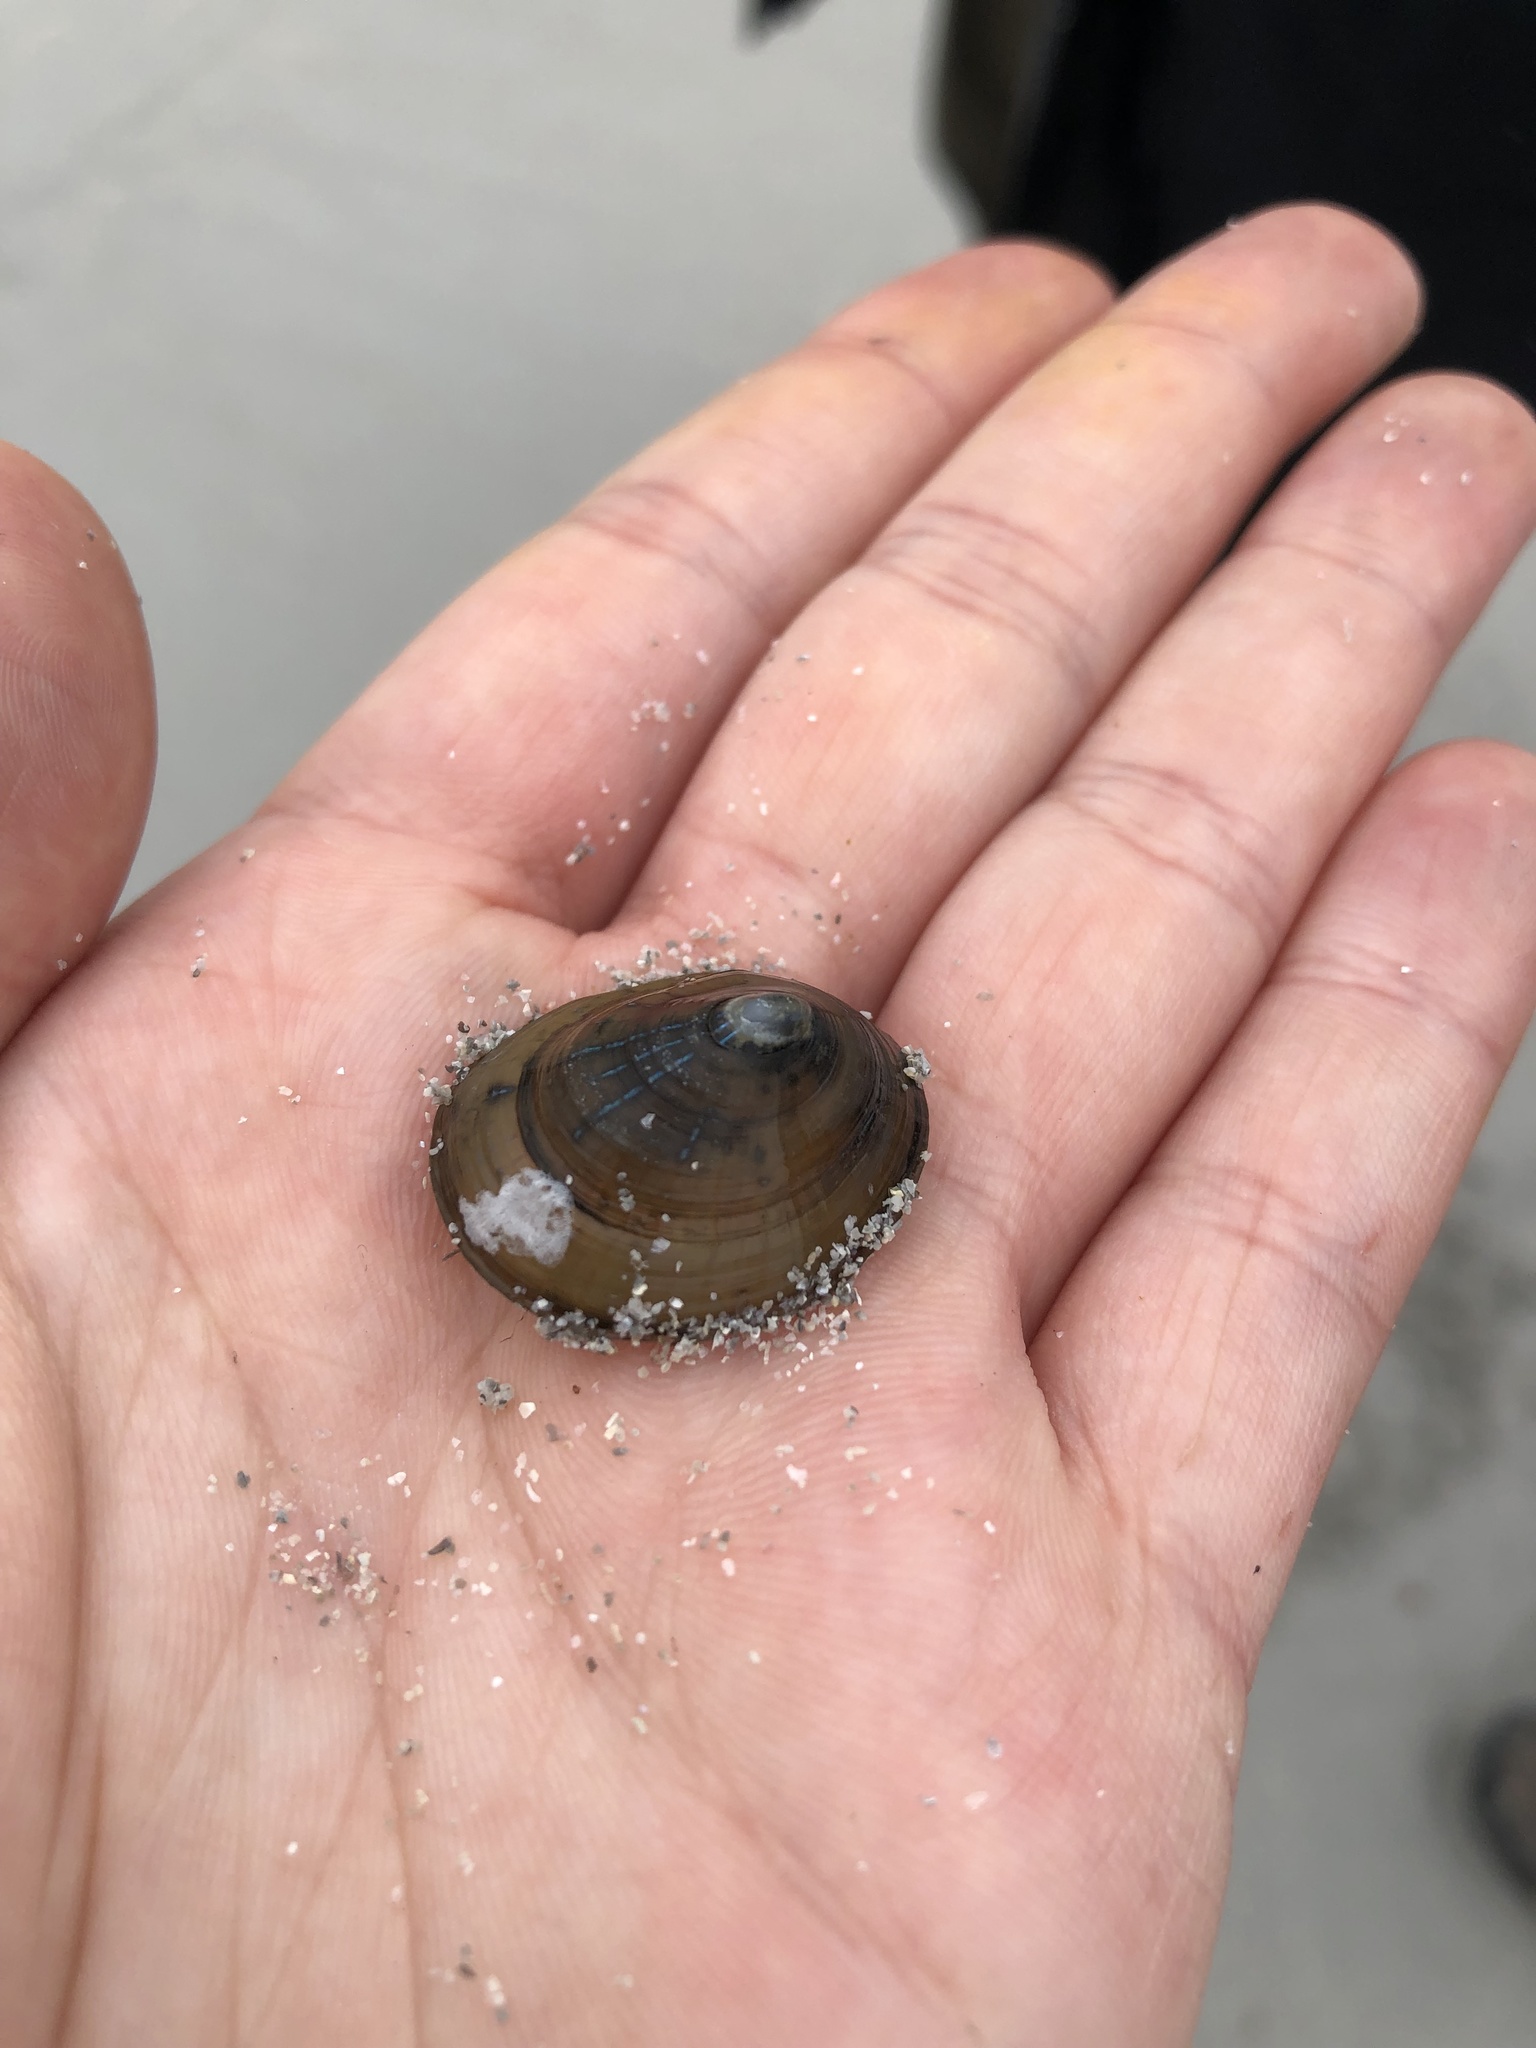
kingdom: Animalia
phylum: Mollusca
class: Gastropoda
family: Patellidae
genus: Patella
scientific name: Patella pellucida
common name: Blue-rayed limpet
